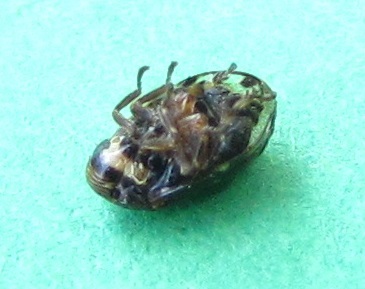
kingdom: Animalia
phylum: Arthropoda
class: Insecta
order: Hemiptera
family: Clastopteridae
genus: Clastoptera
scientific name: Clastoptera xanthocephala
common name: Sunflower spittlebug
